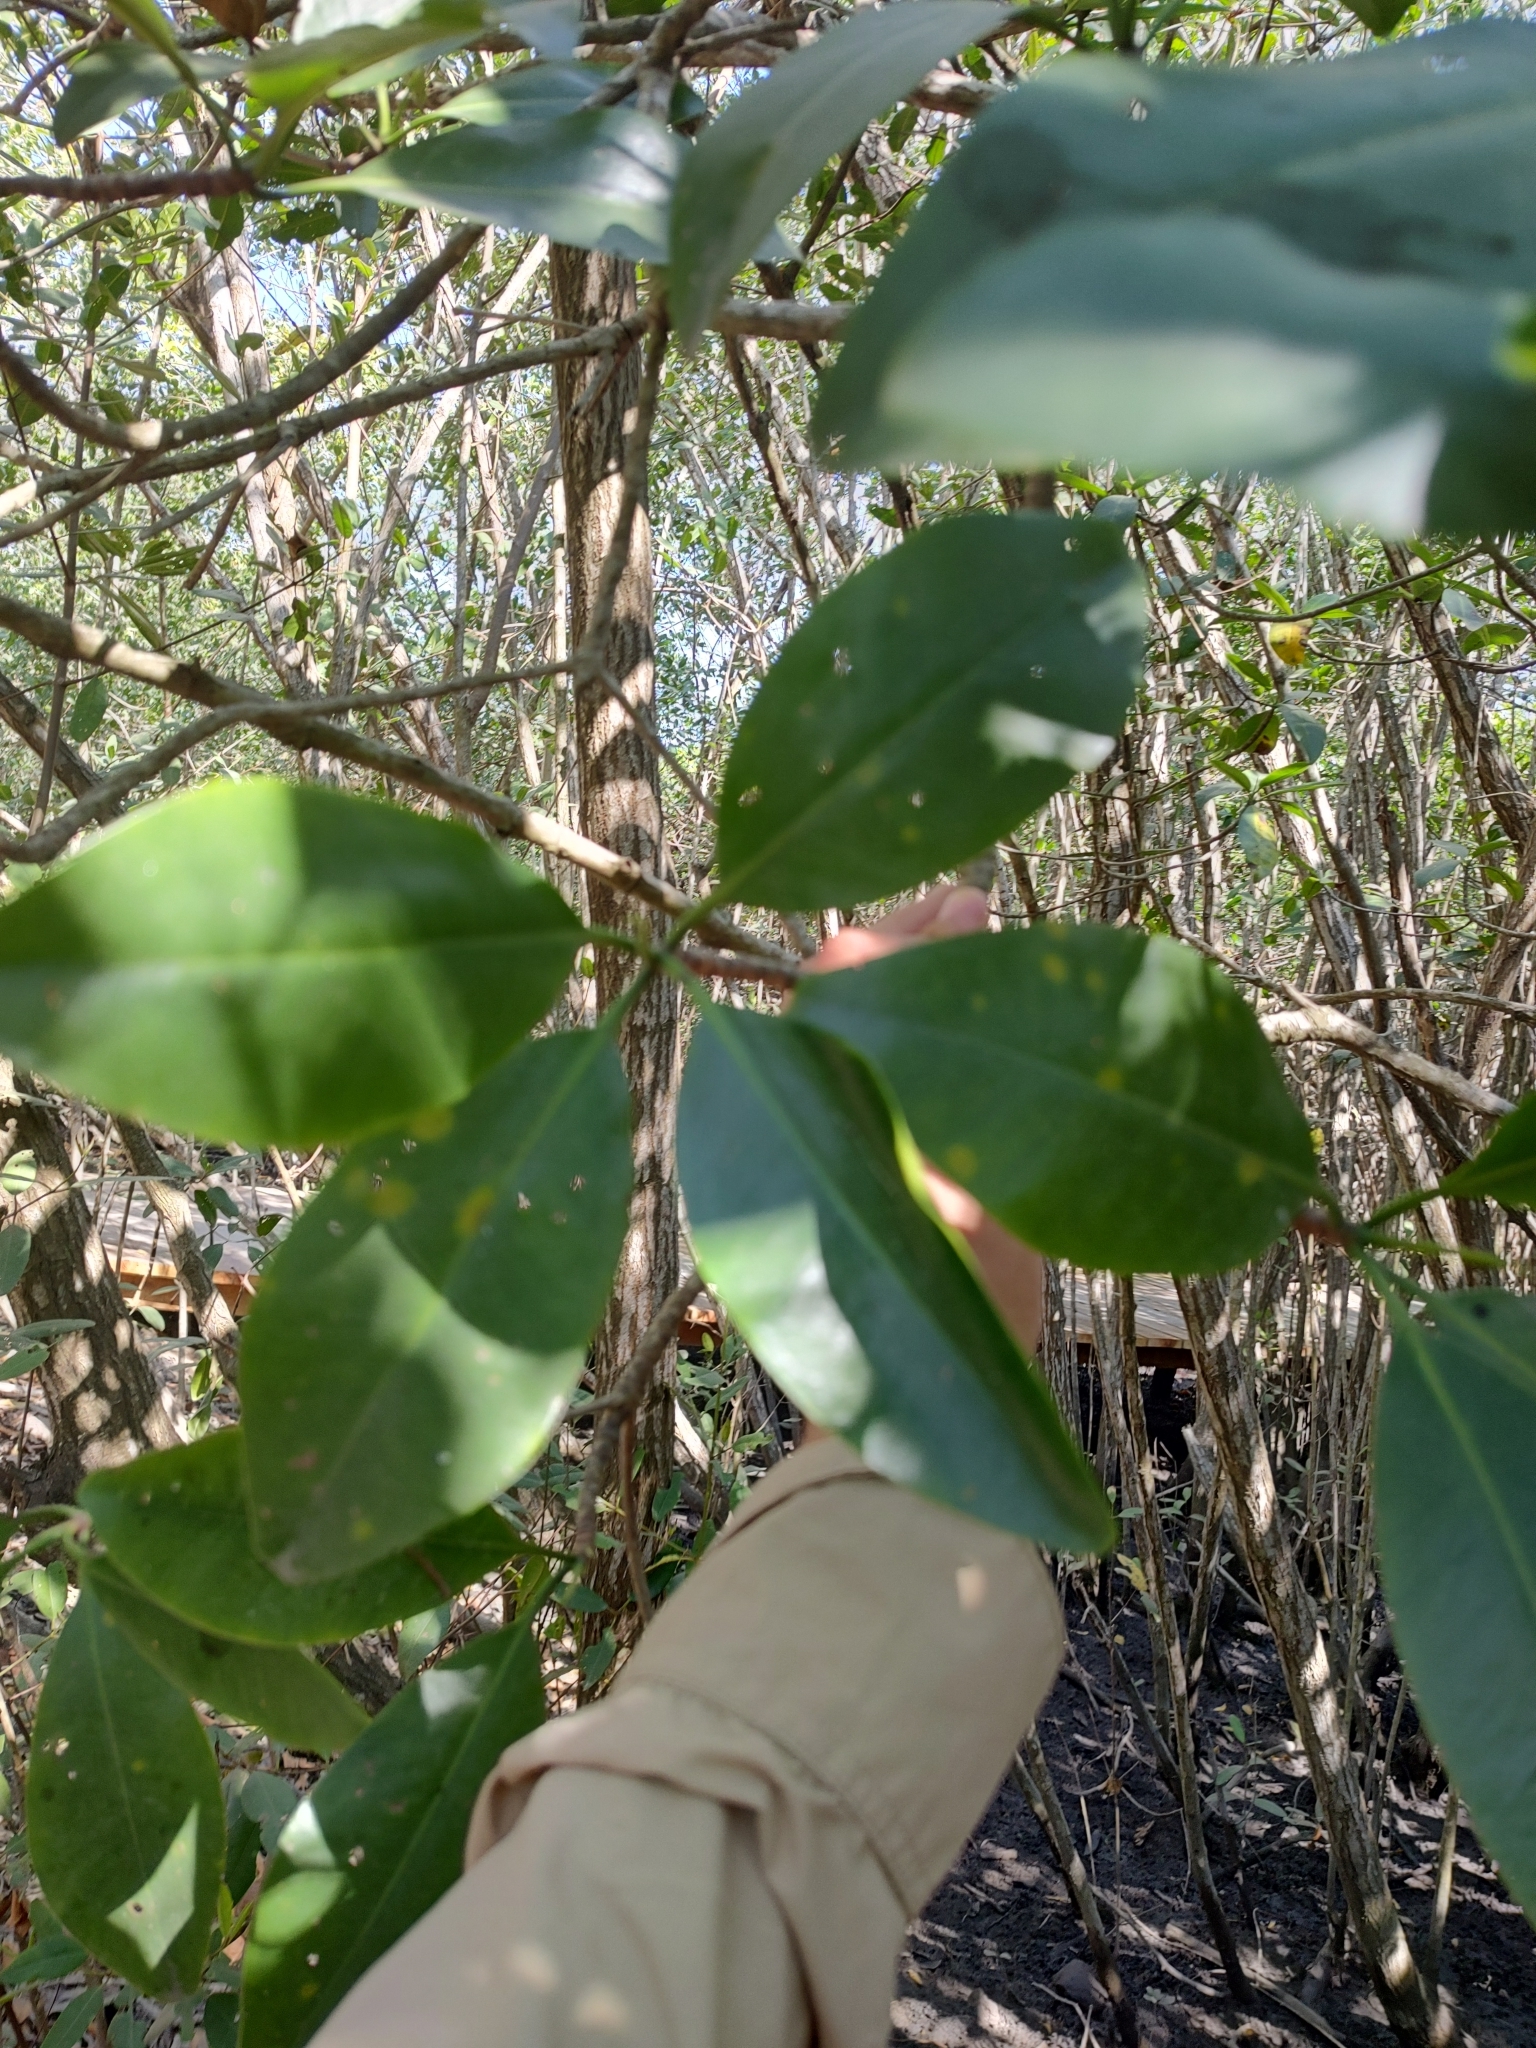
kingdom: Plantae
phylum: Tracheophyta
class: Magnoliopsida
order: Malpighiales
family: Rhizophoraceae
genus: Rhizophora
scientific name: Rhizophora mangle
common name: Red mangrove
